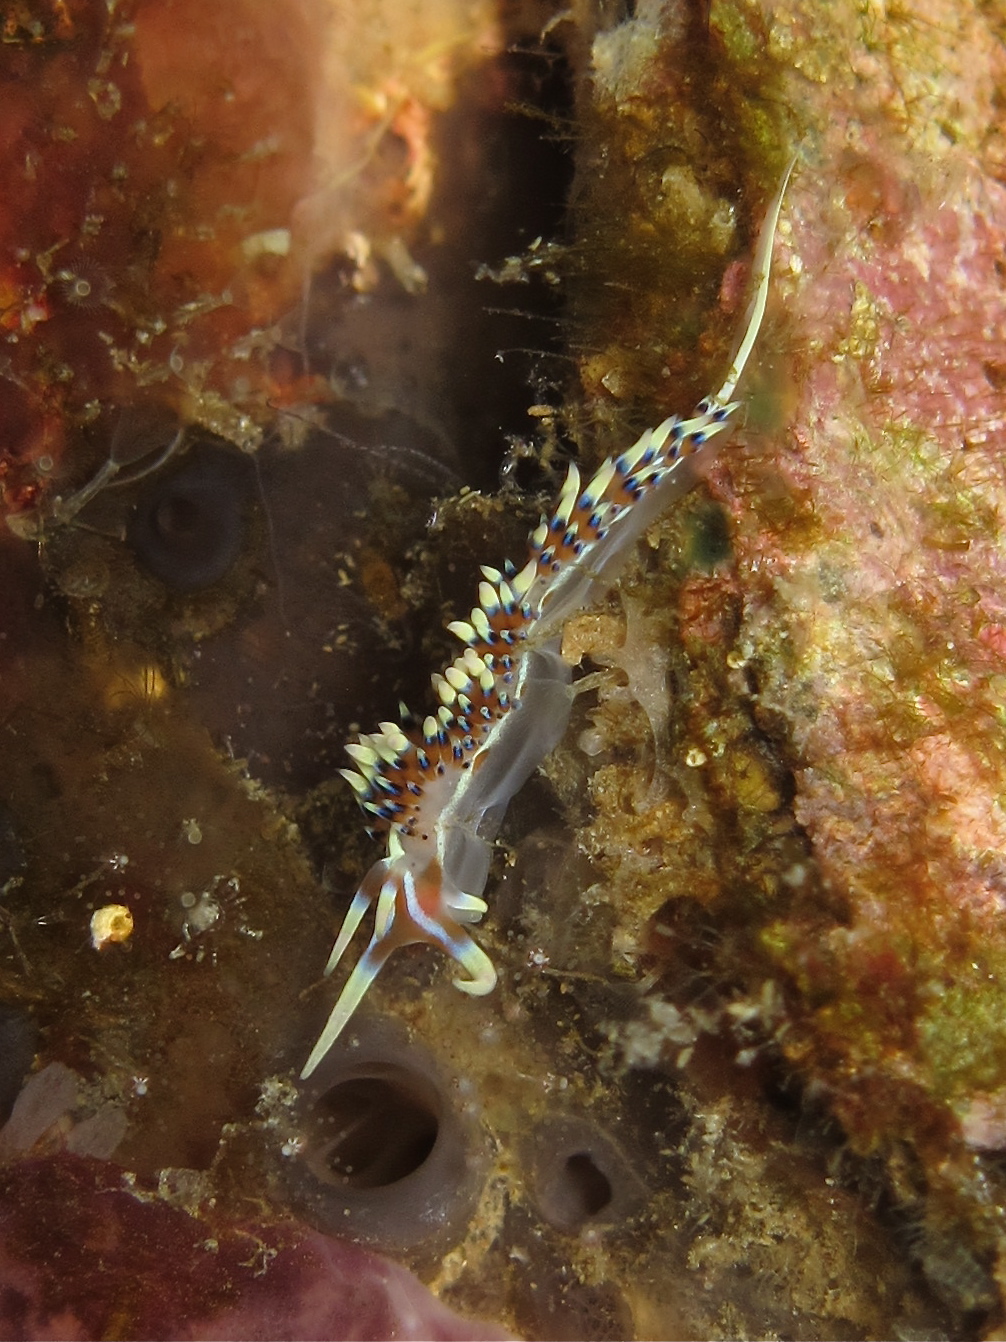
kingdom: Animalia
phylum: Mollusca
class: Gastropoda
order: Nudibranchia
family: Facelinidae
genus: Caloria
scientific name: Caloria indica
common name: Sea slug
